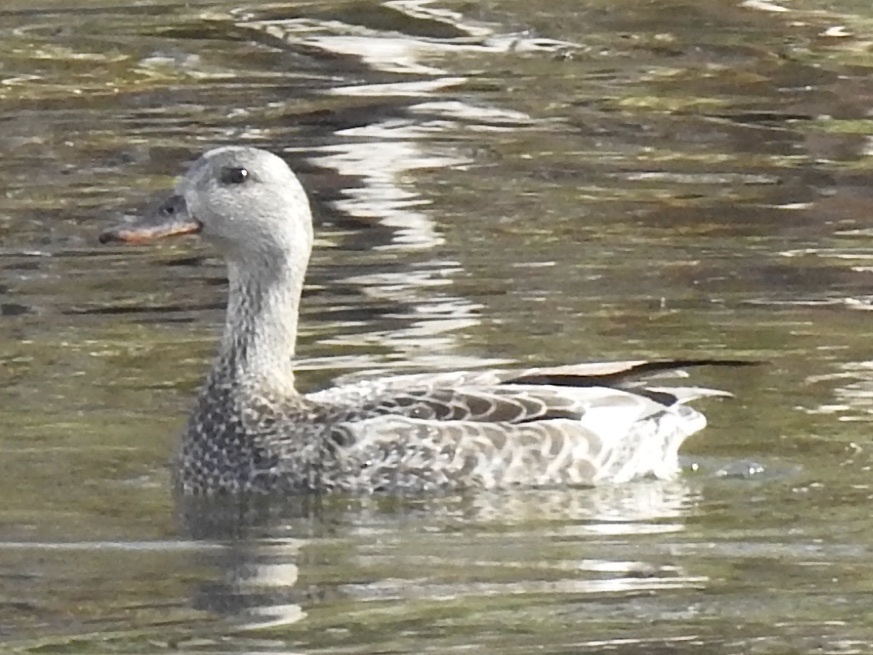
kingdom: Animalia
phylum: Chordata
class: Aves
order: Anseriformes
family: Anatidae
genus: Mareca
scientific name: Mareca strepera
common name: Gadwall
